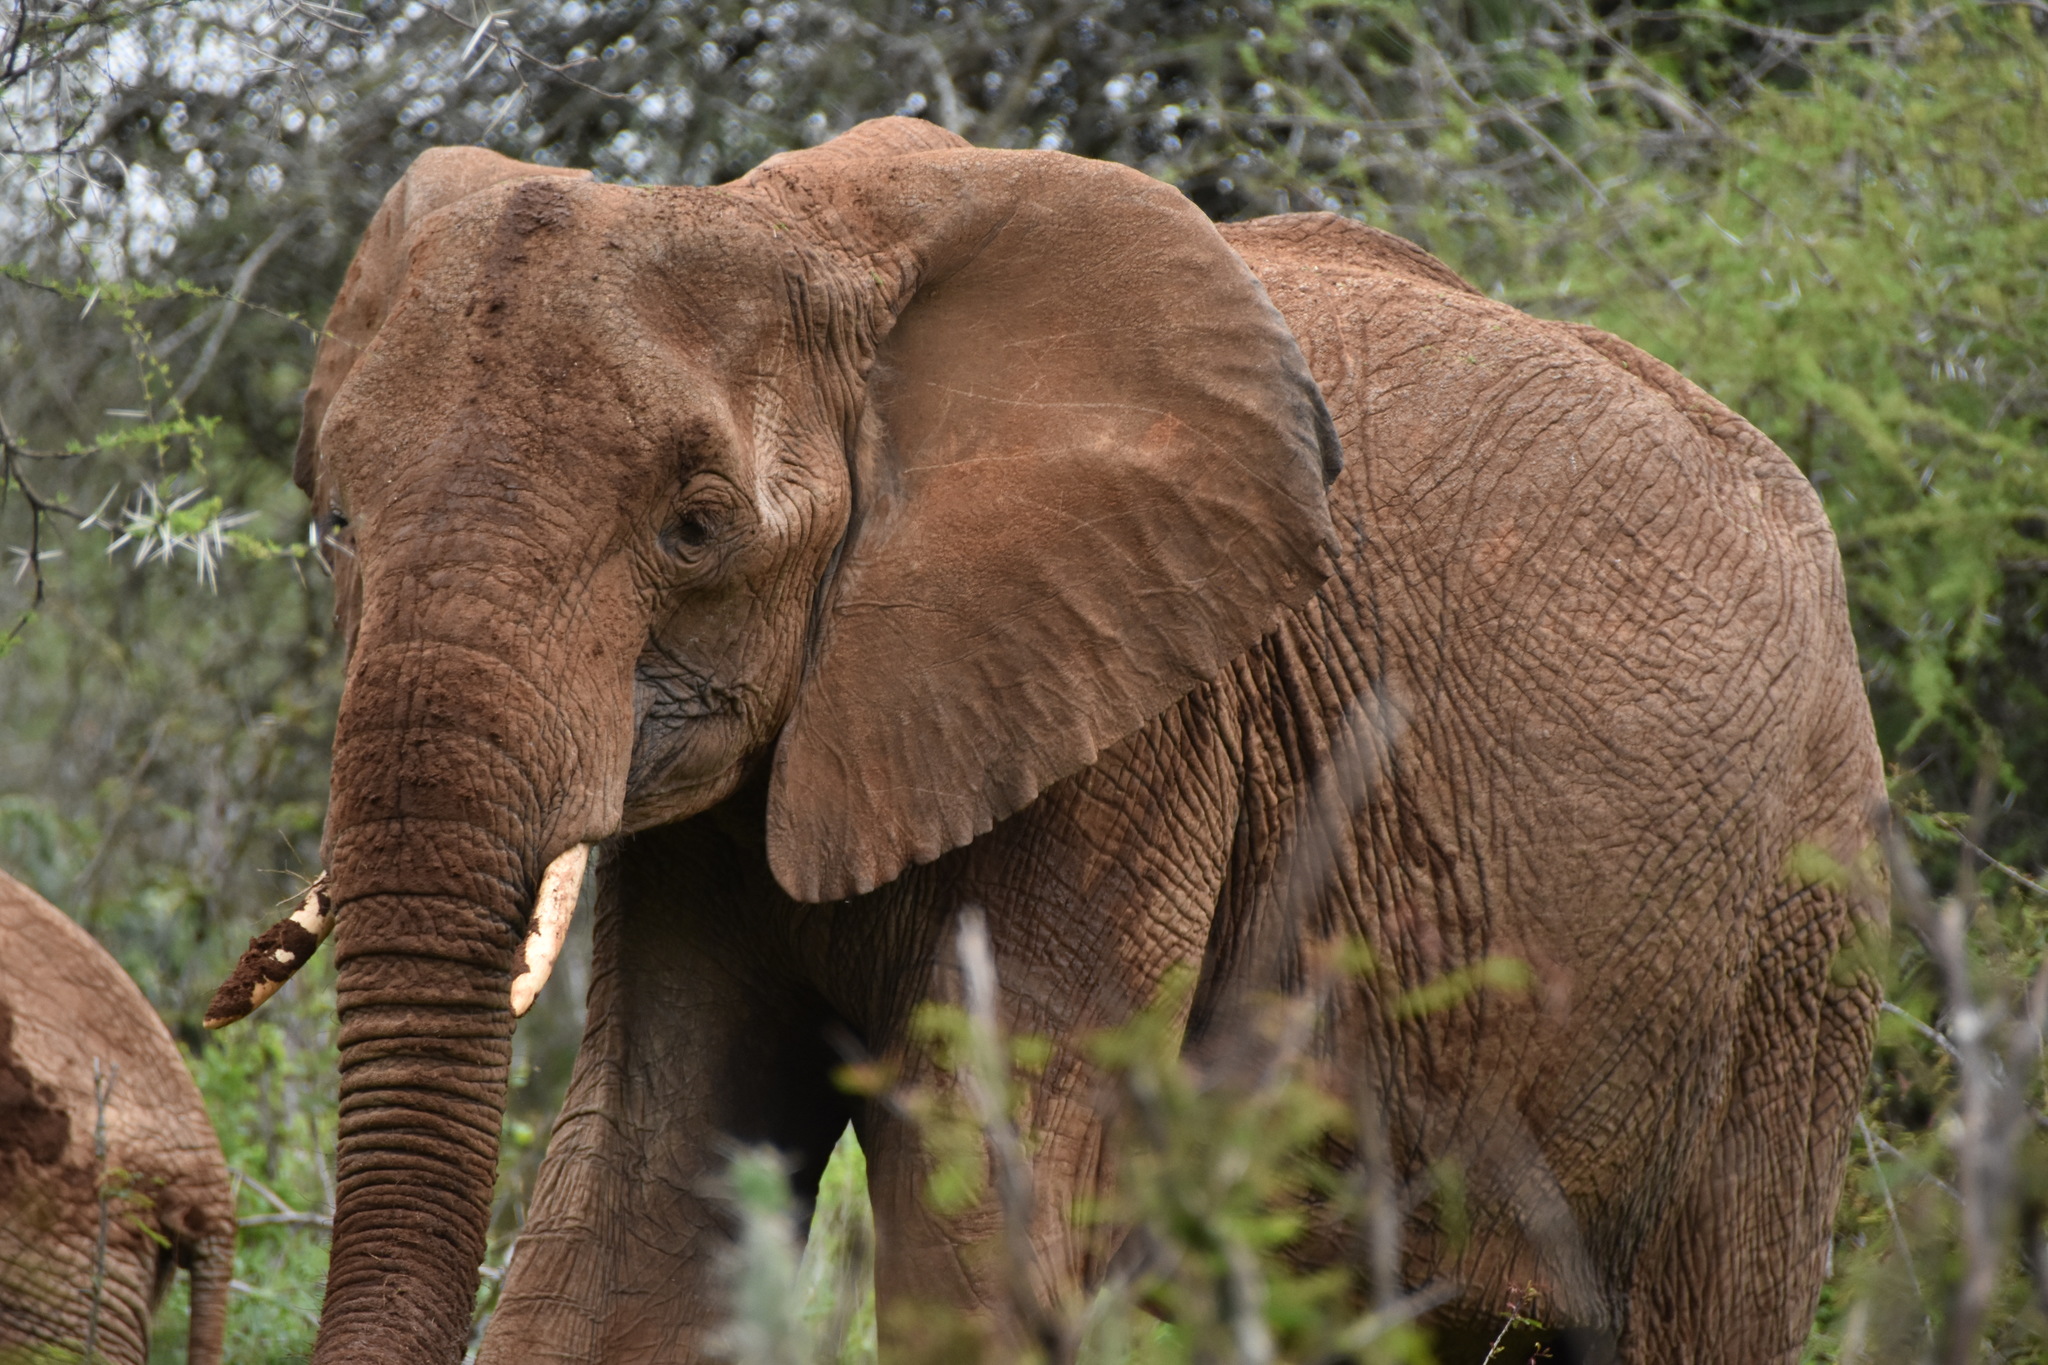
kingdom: Animalia
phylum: Chordata
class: Mammalia
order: Proboscidea
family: Elephantidae
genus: Loxodonta
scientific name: Loxodonta africana
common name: African elephant
